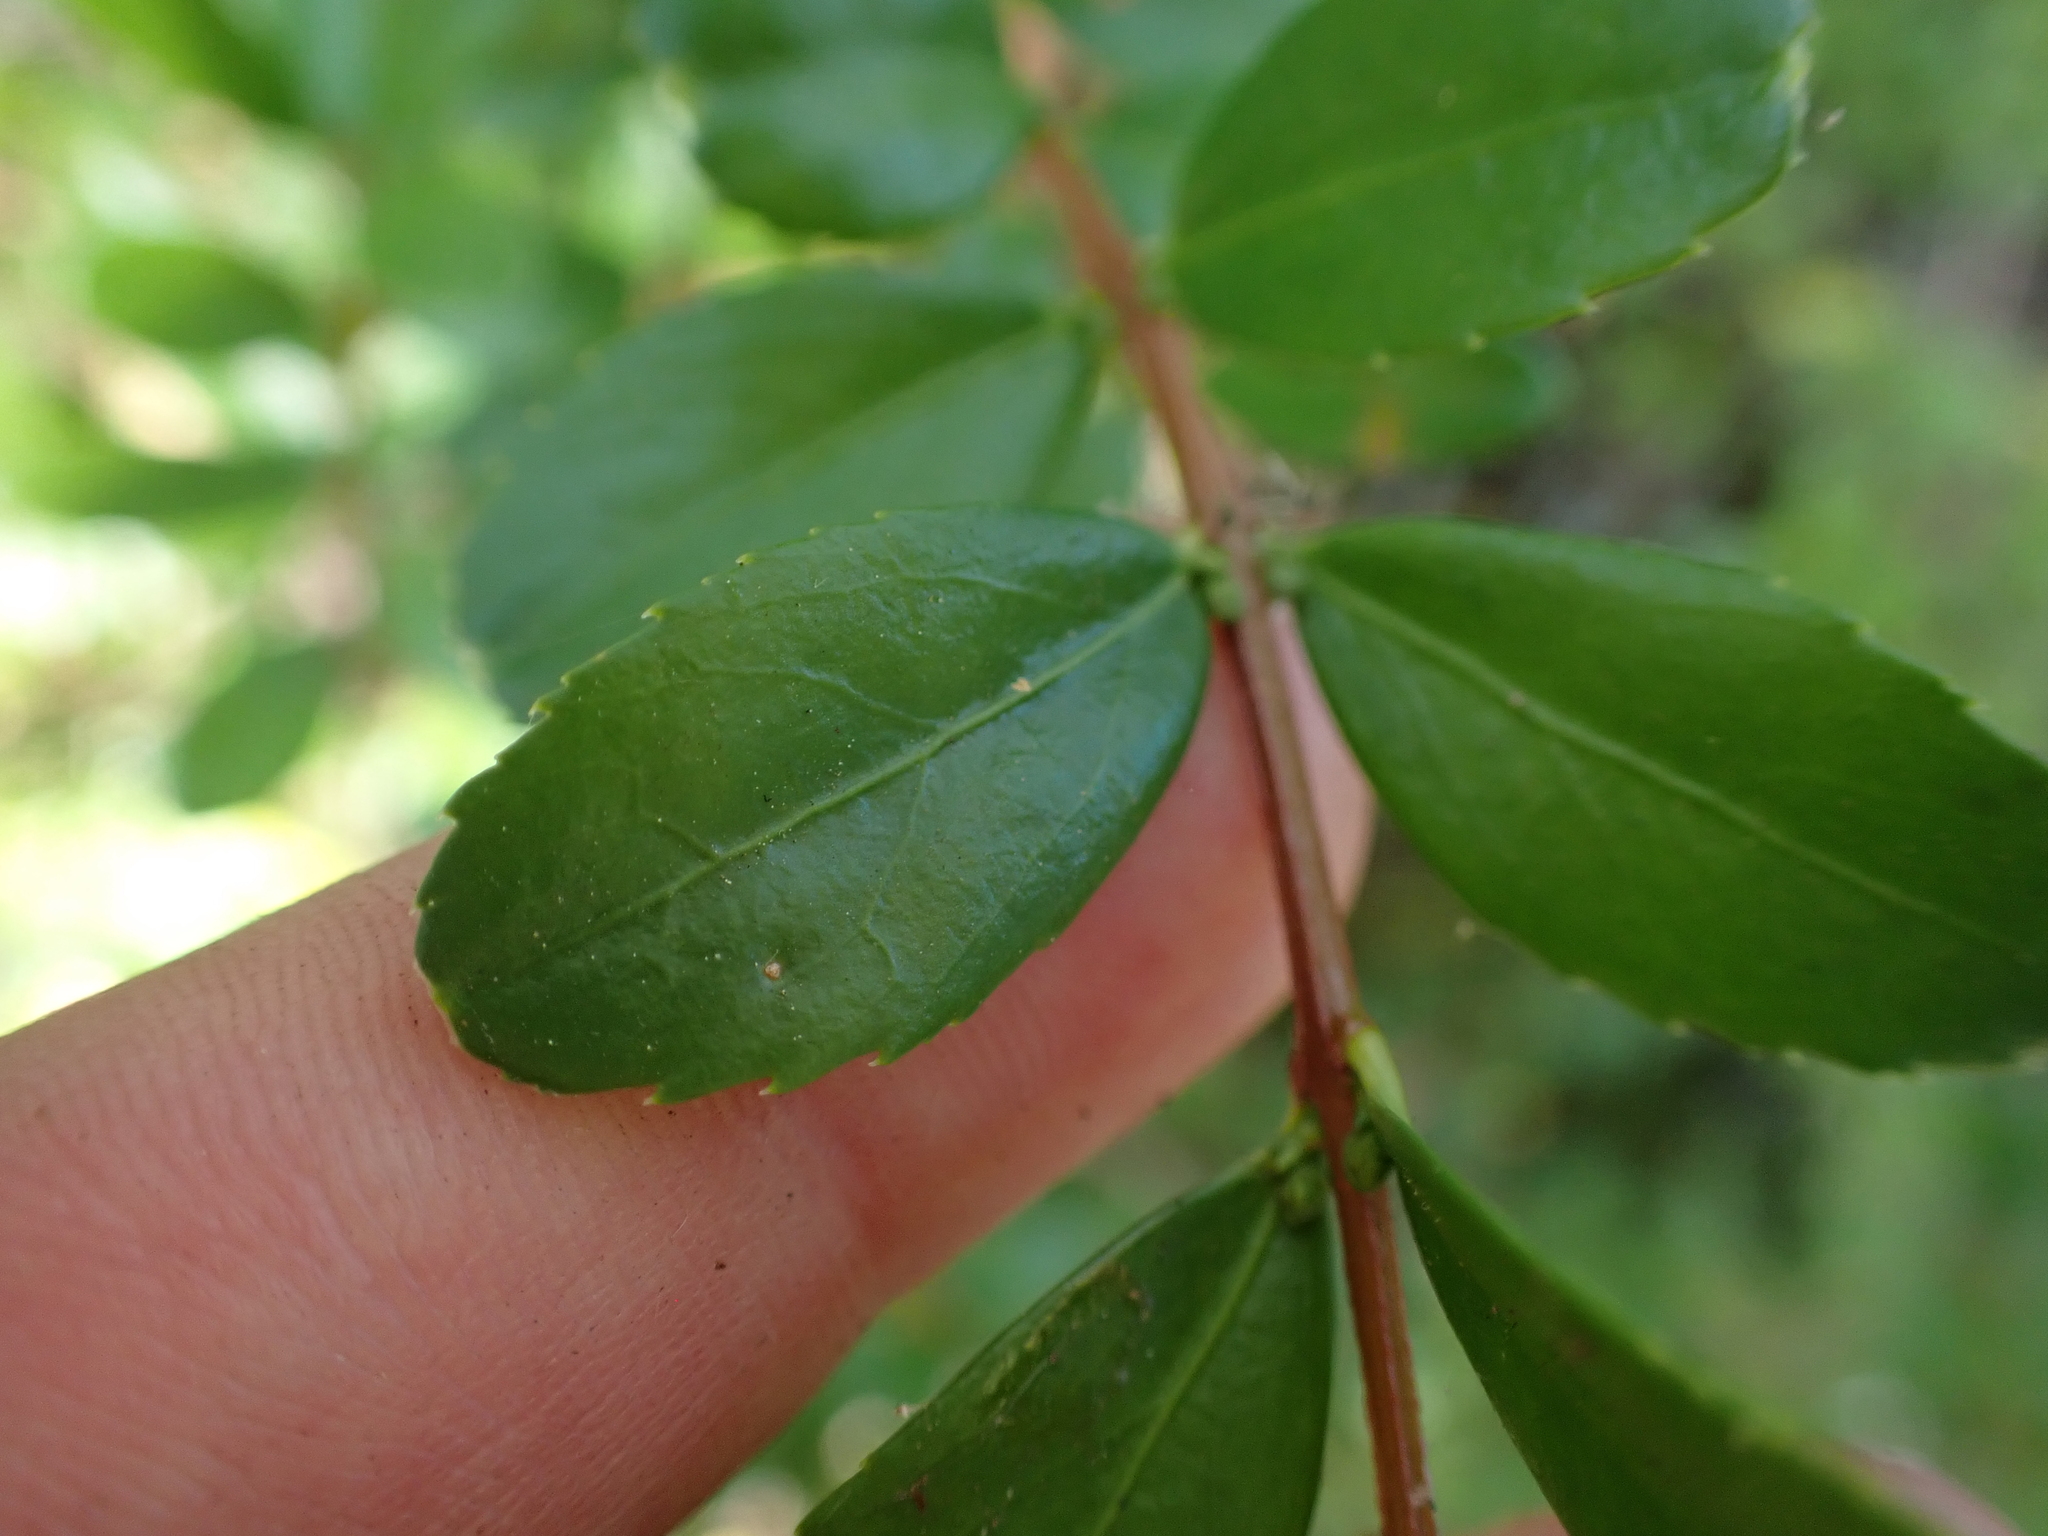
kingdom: Plantae
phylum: Tracheophyta
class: Magnoliopsida
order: Celastrales
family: Celastraceae
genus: Paxistima
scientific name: Paxistima myrsinites
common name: Mountain-lover
